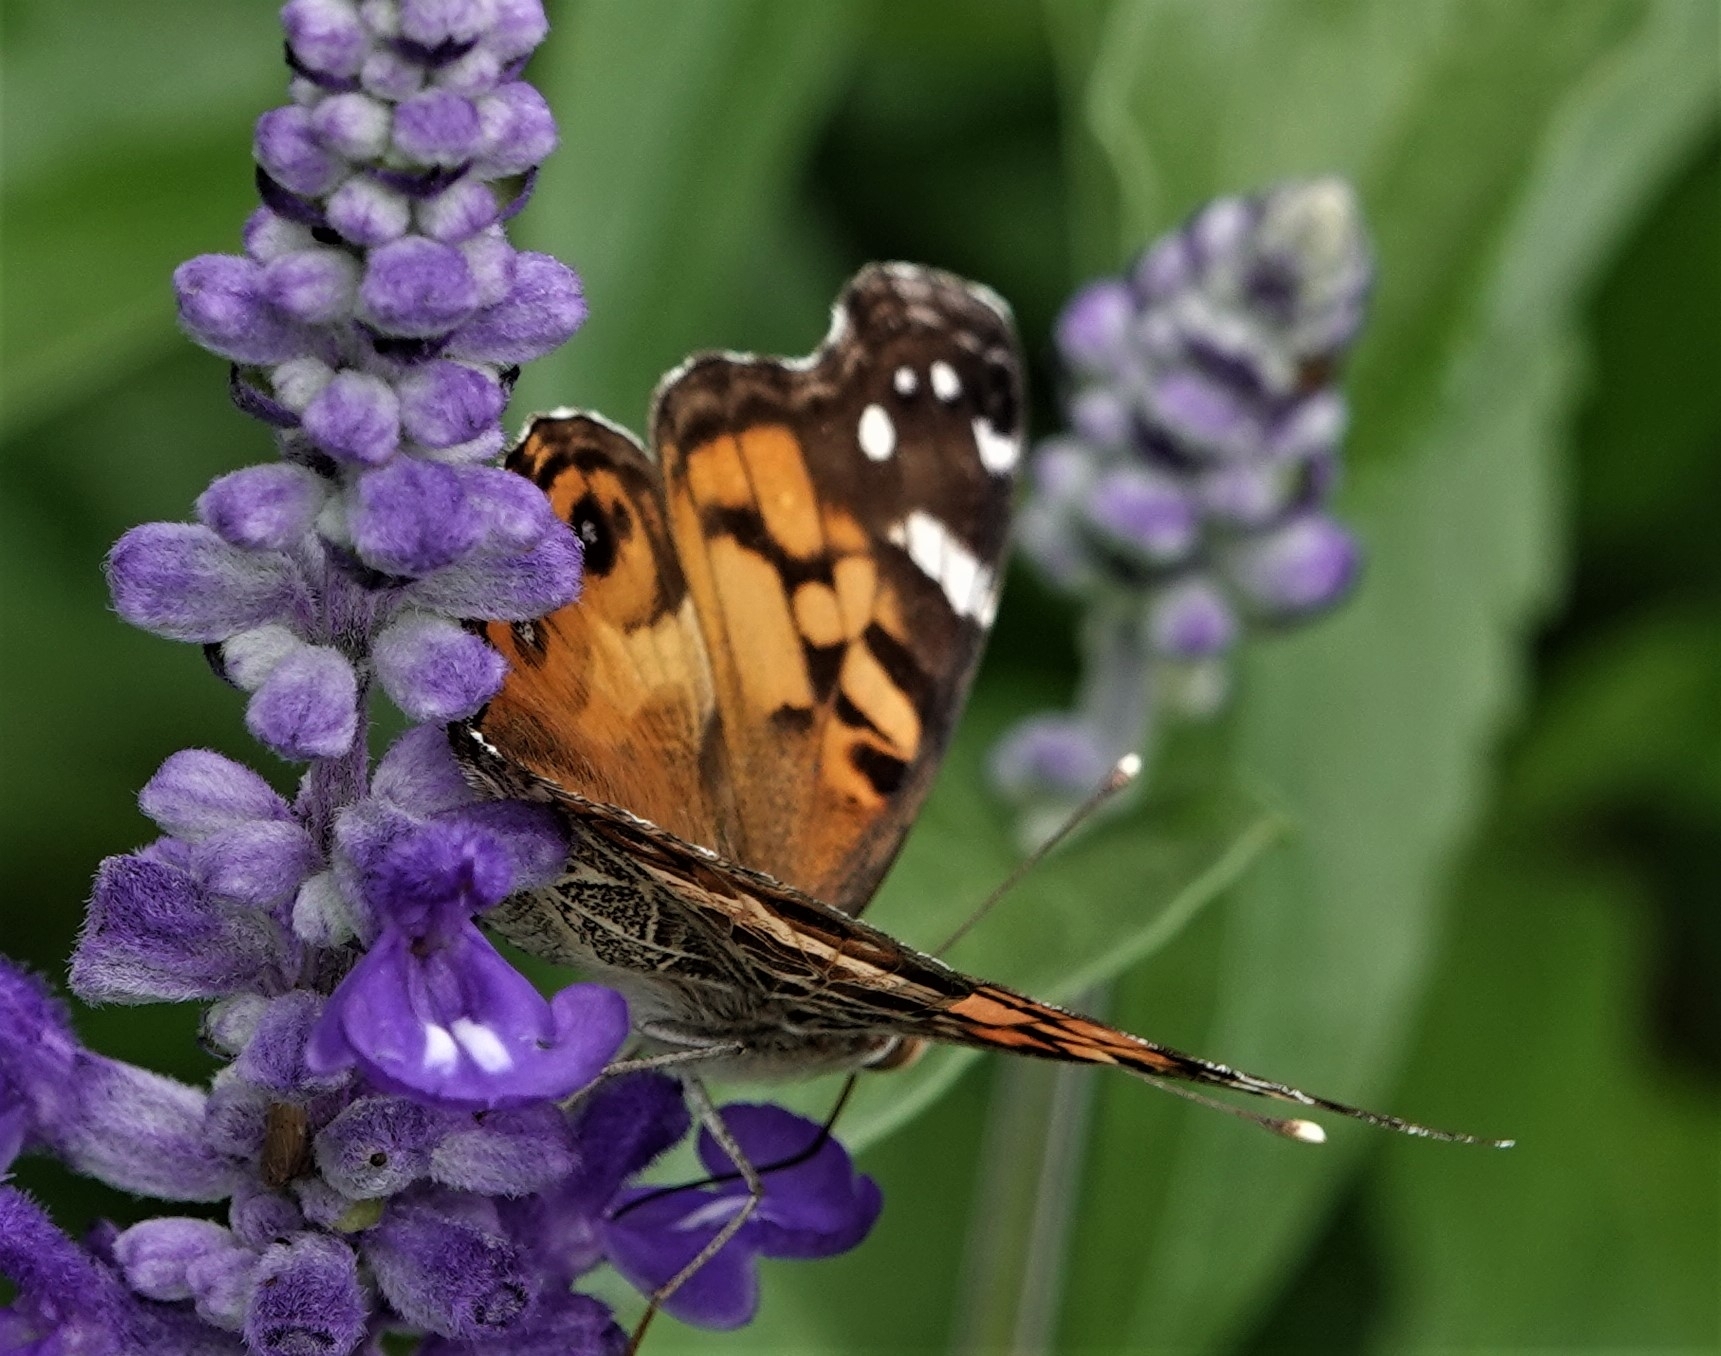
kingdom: Animalia
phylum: Arthropoda
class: Insecta
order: Lepidoptera
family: Nymphalidae
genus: Vanessa
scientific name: Vanessa virginiensis
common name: American lady
